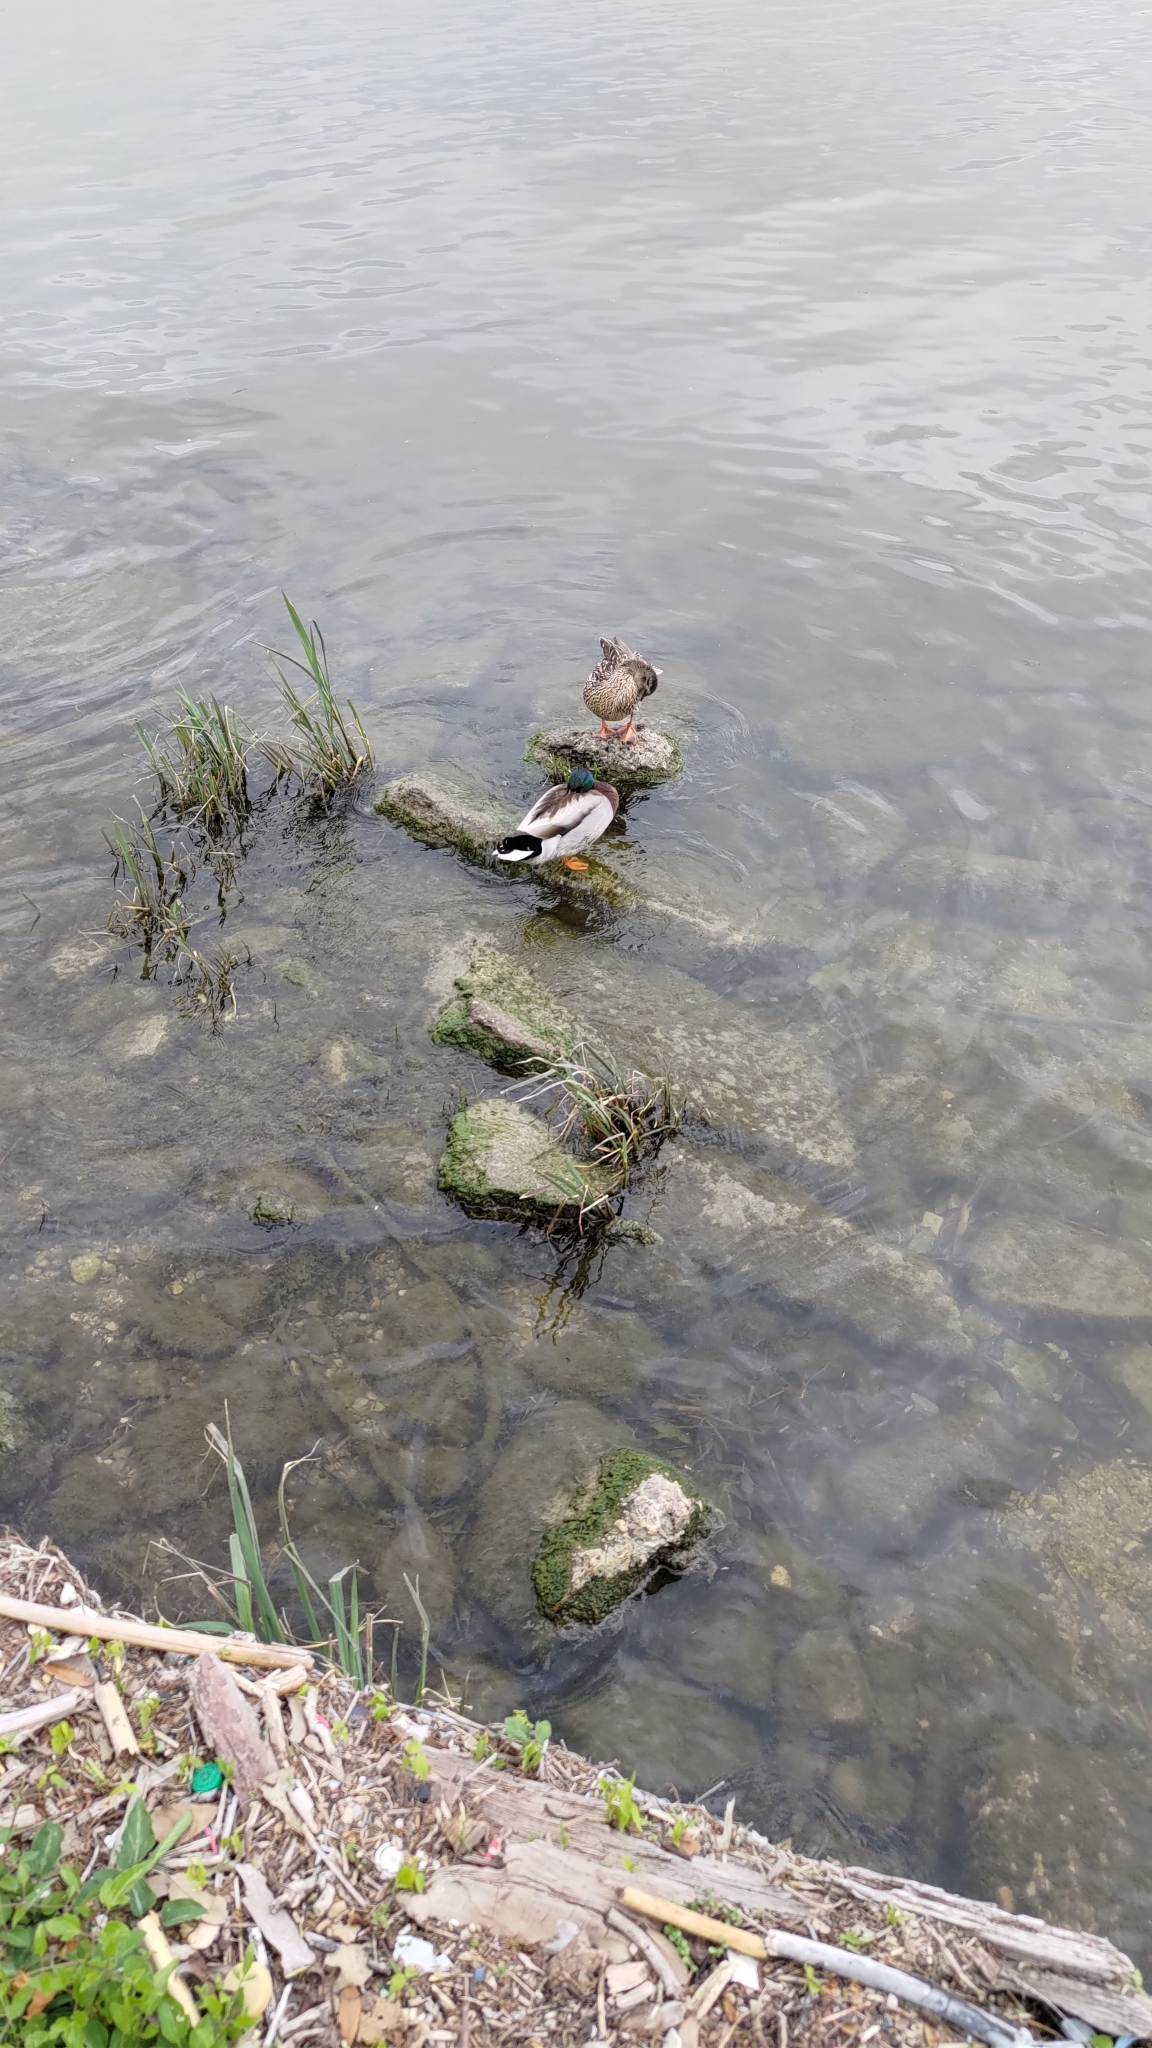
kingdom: Animalia
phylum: Chordata
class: Aves
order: Anseriformes
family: Anatidae
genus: Anas
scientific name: Anas platyrhynchos
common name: Mallard
